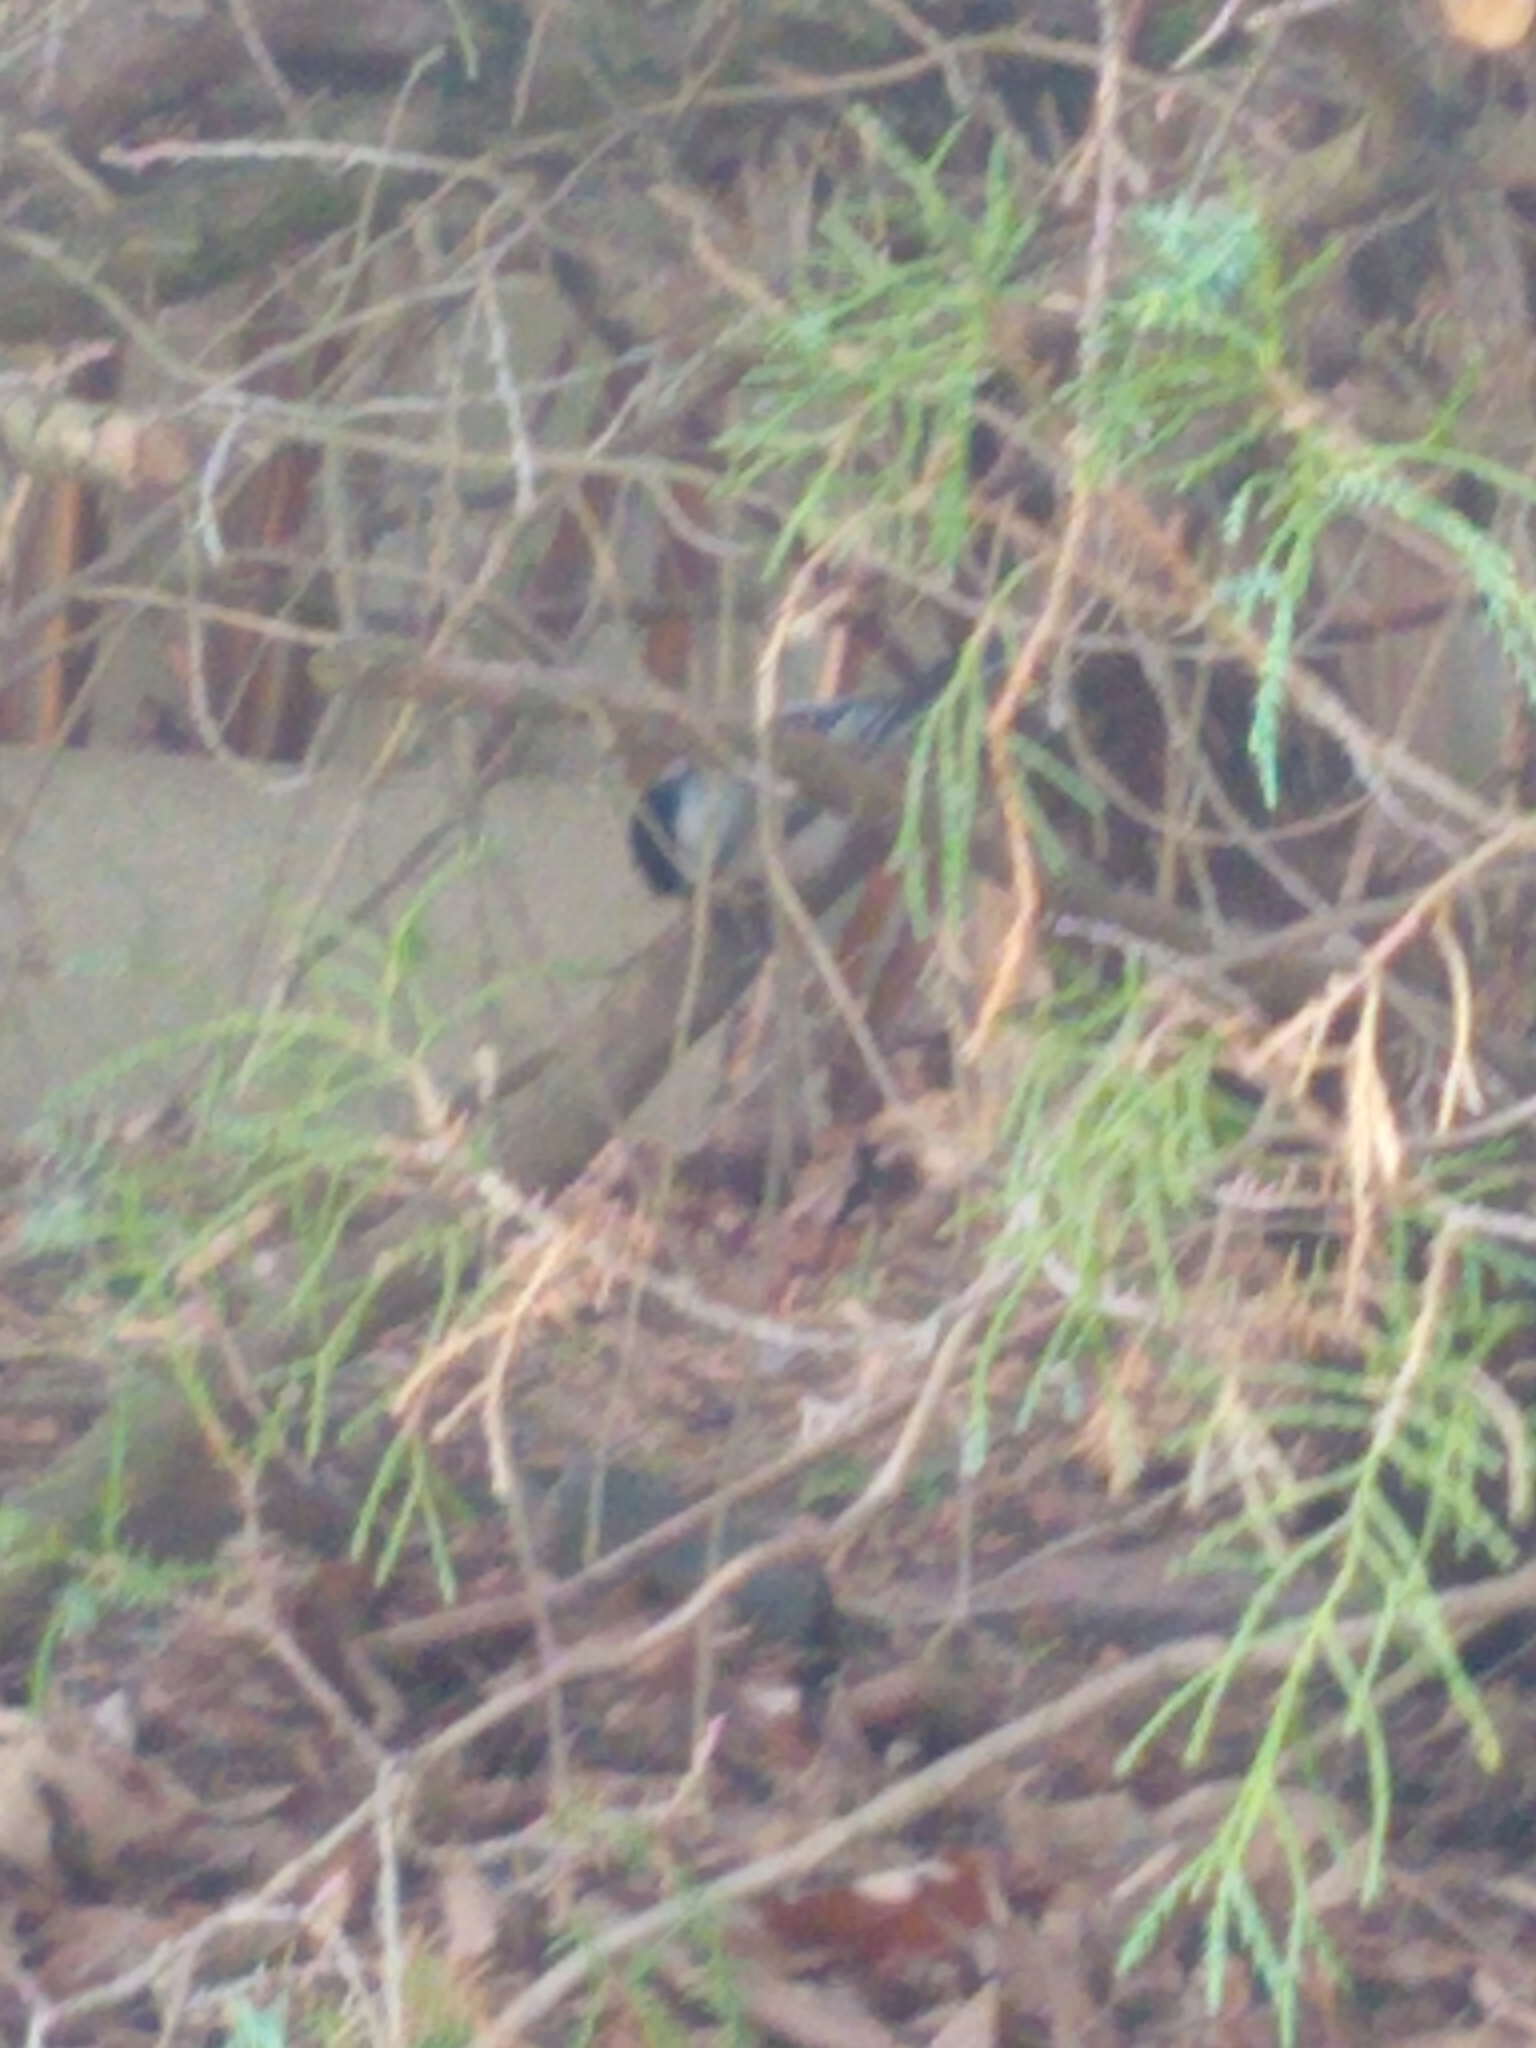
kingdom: Animalia
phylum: Chordata
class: Aves
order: Passeriformes
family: Paridae
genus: Poecile
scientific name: Poecile atricapillus
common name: Black-capped chickadee
